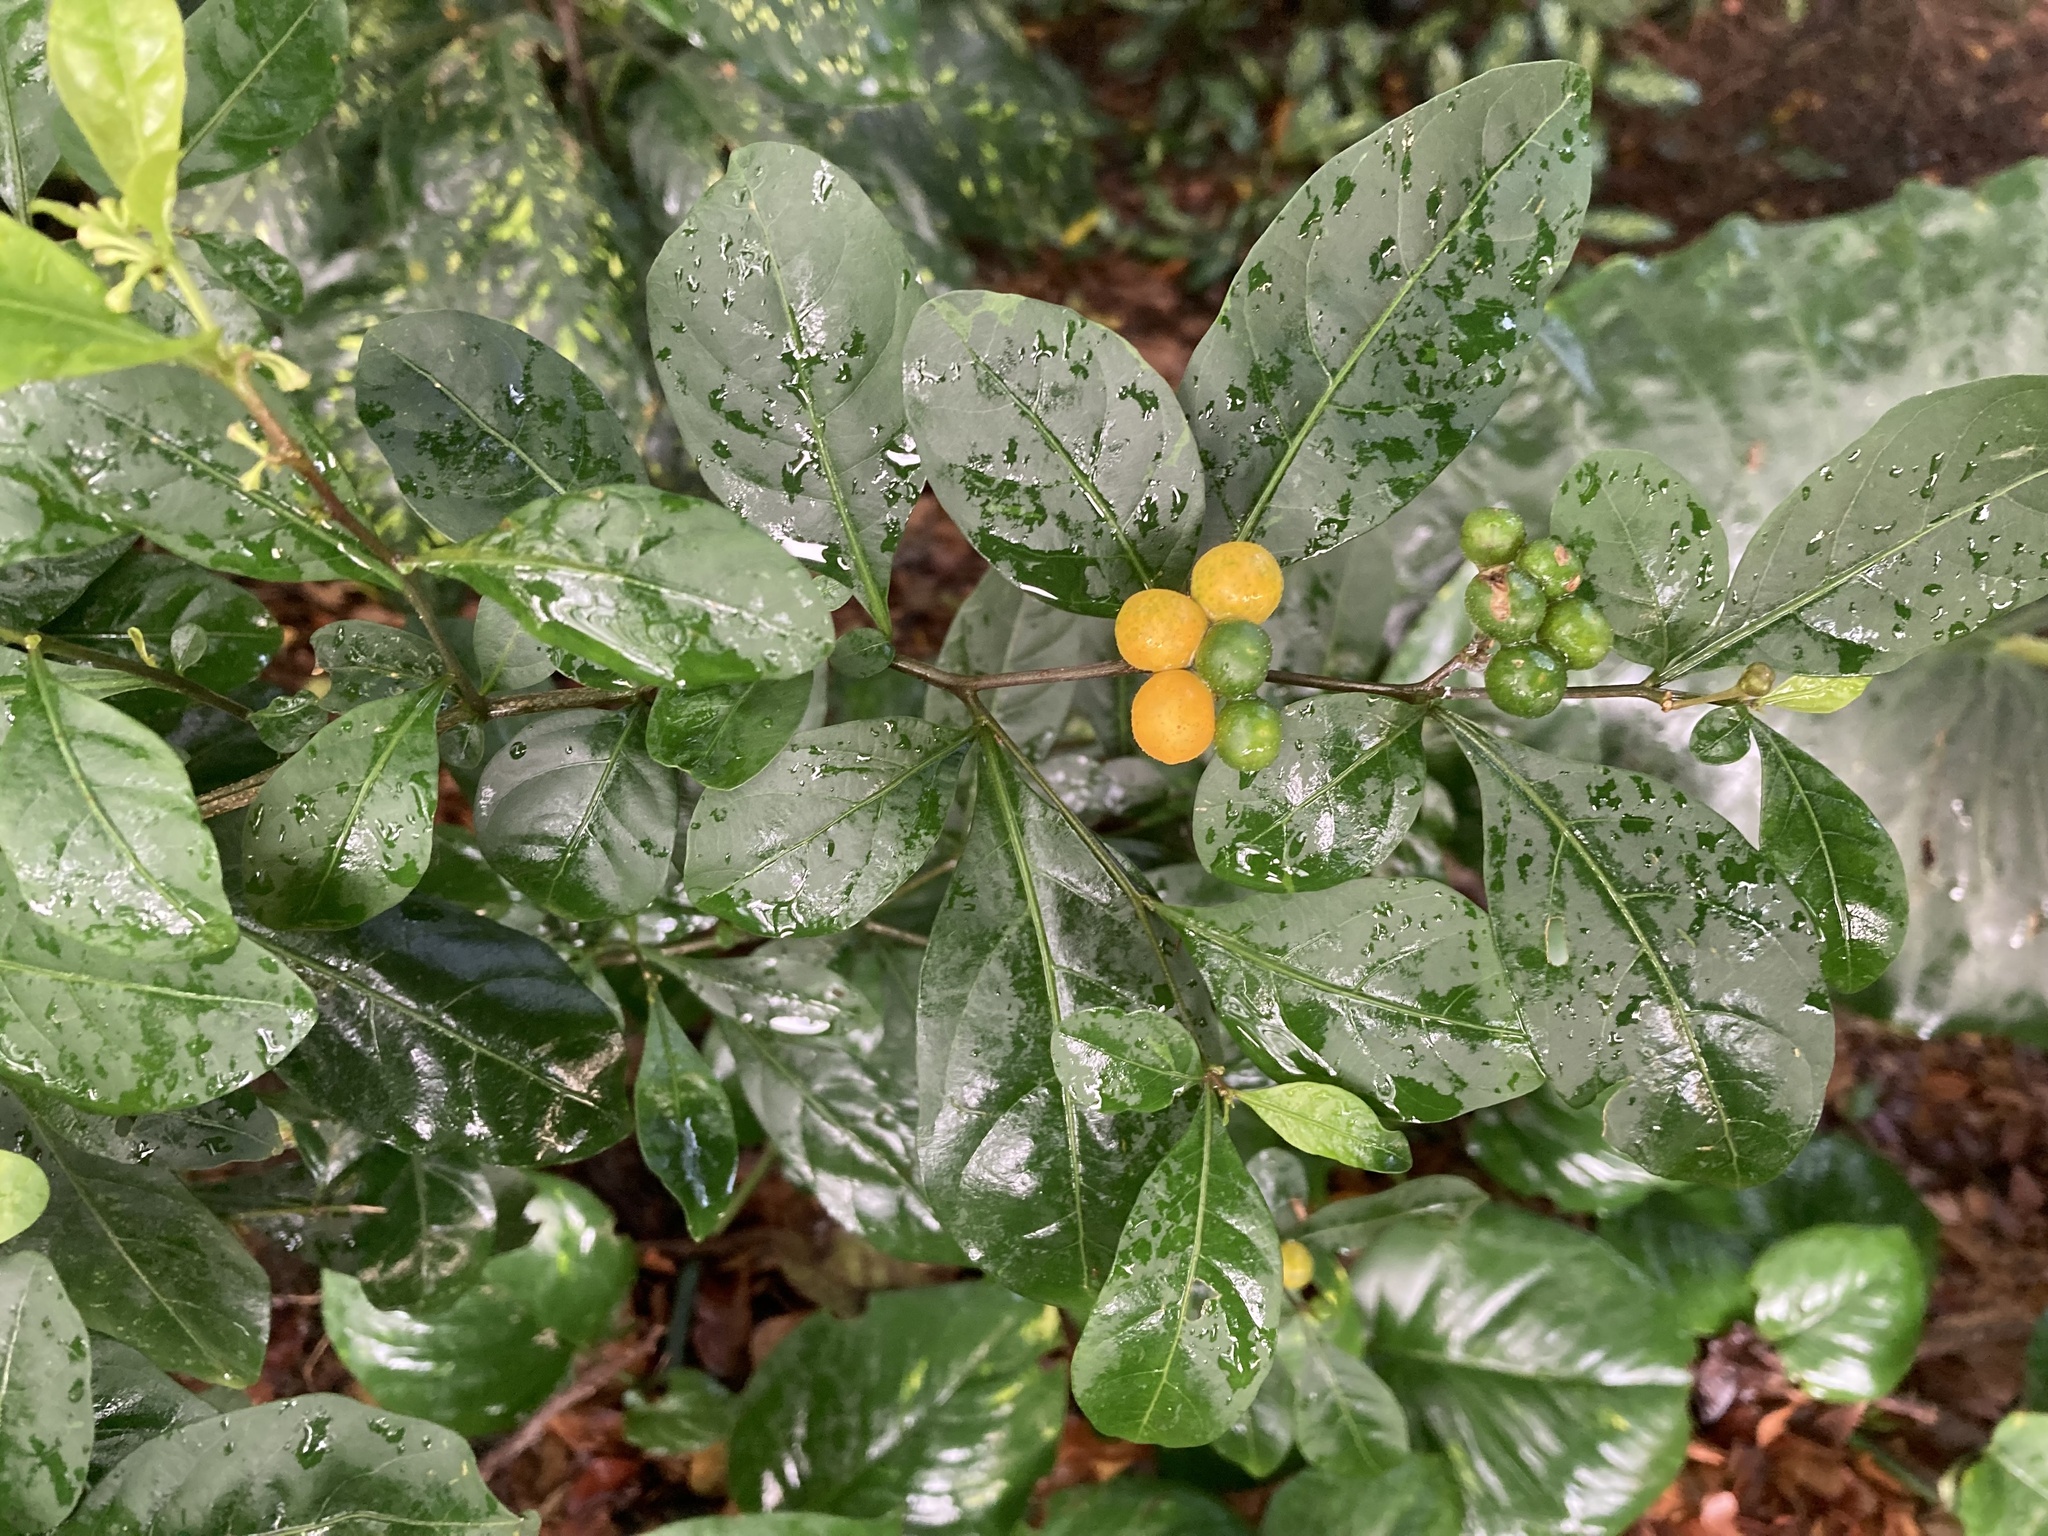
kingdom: Plantae
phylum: Tracheophyta
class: Magnoliopsida
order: Solanales
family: Solanaceae
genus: Solanum
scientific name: Solanum diphyllum
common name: Twoleaf nightshade
